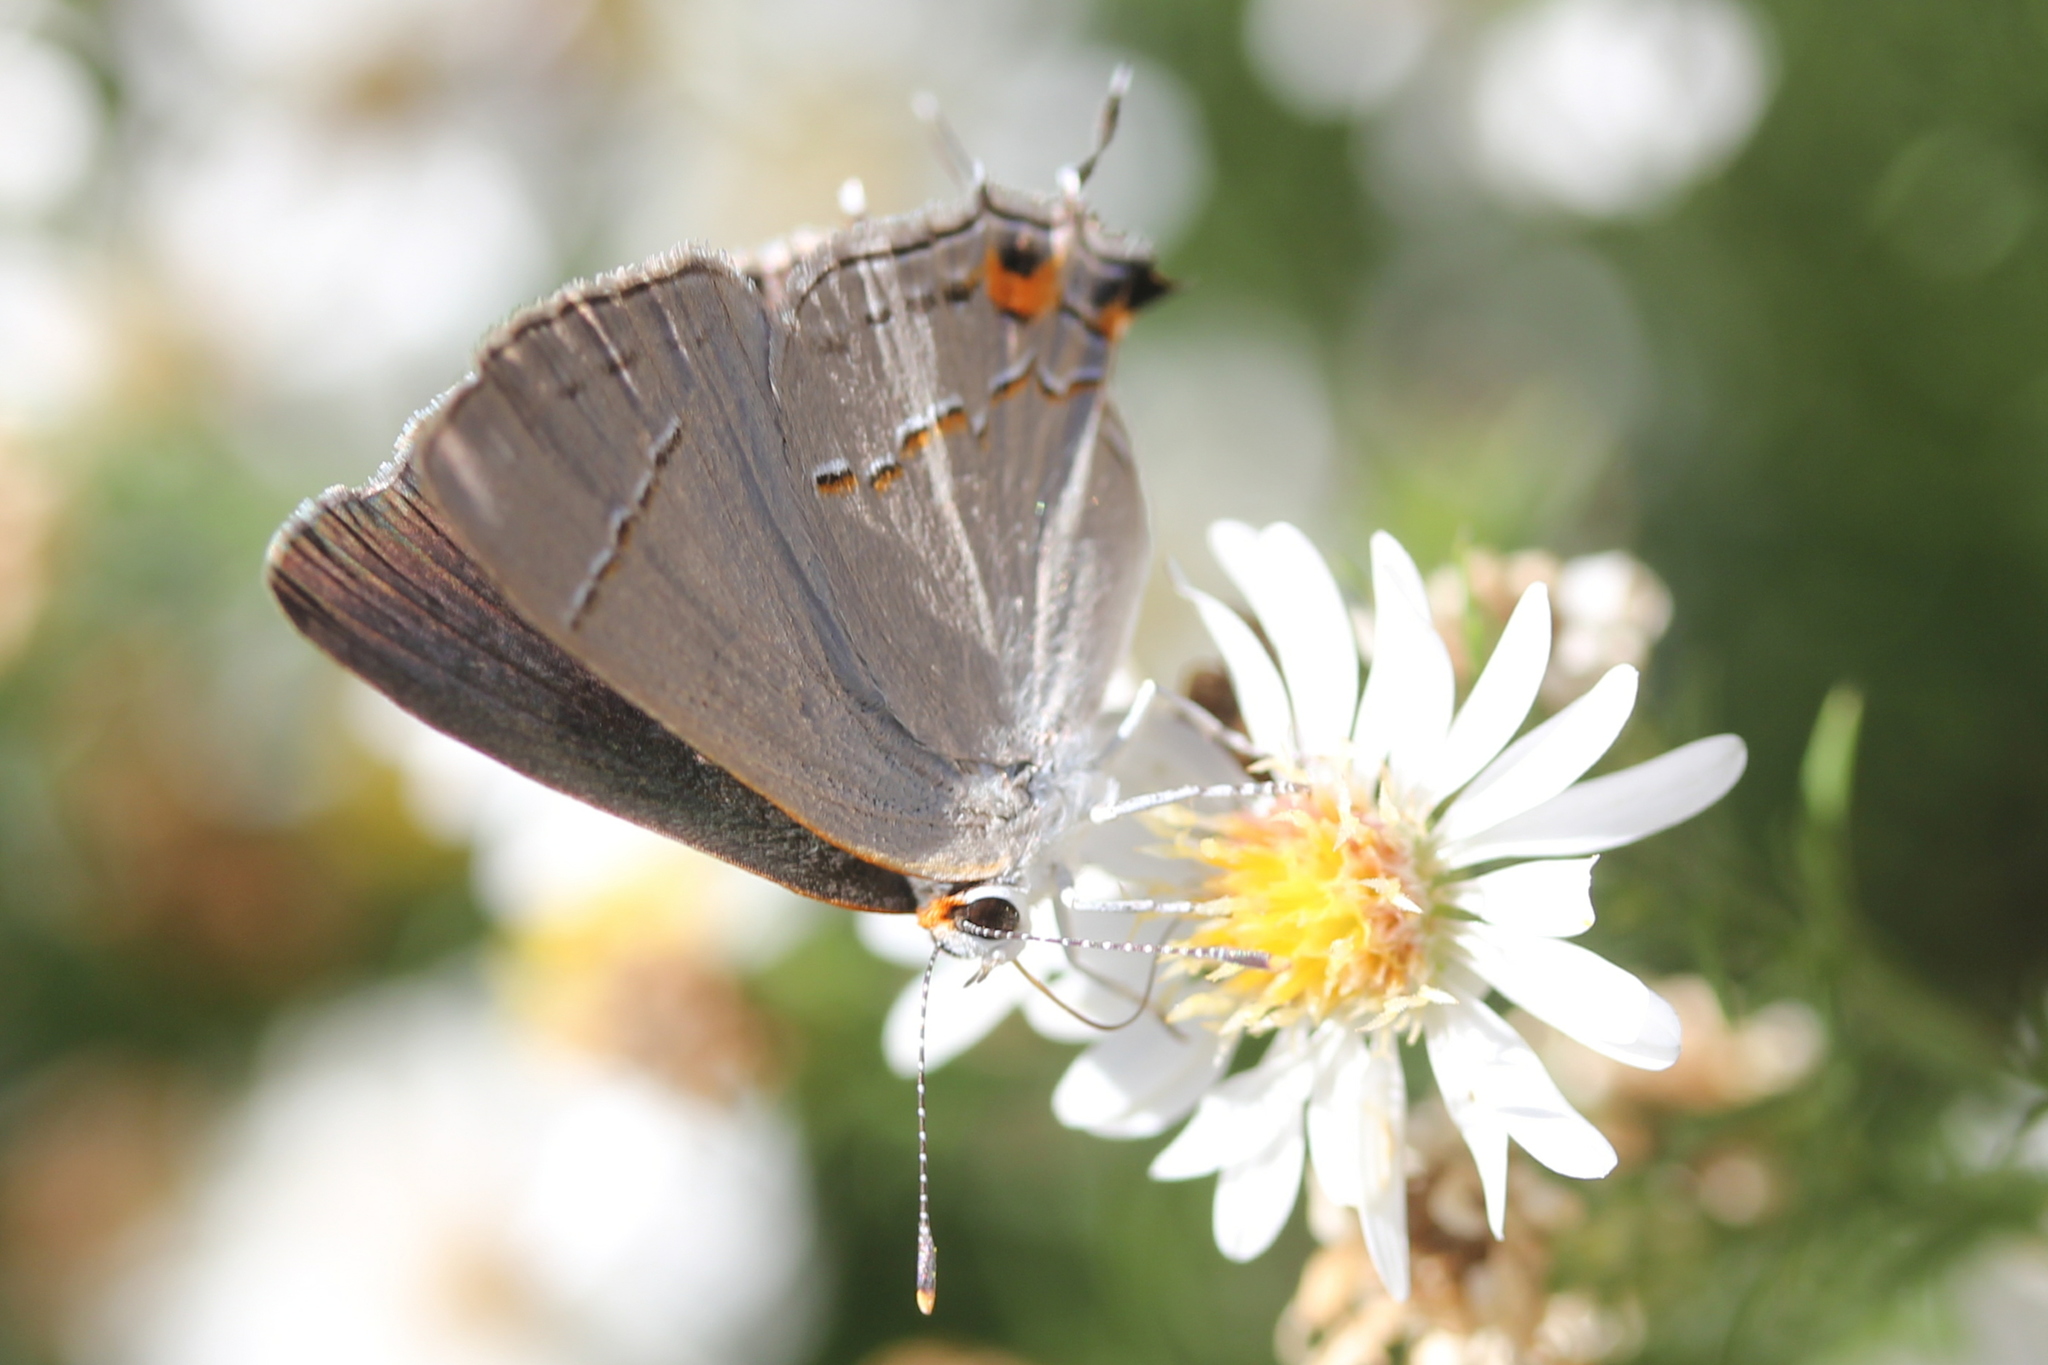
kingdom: Animalia
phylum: Arthropoda
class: Insecta
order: Lepidoptera
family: Lycaenidae
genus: Strymon
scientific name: Strymon melinus
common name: Gray hairstreak
